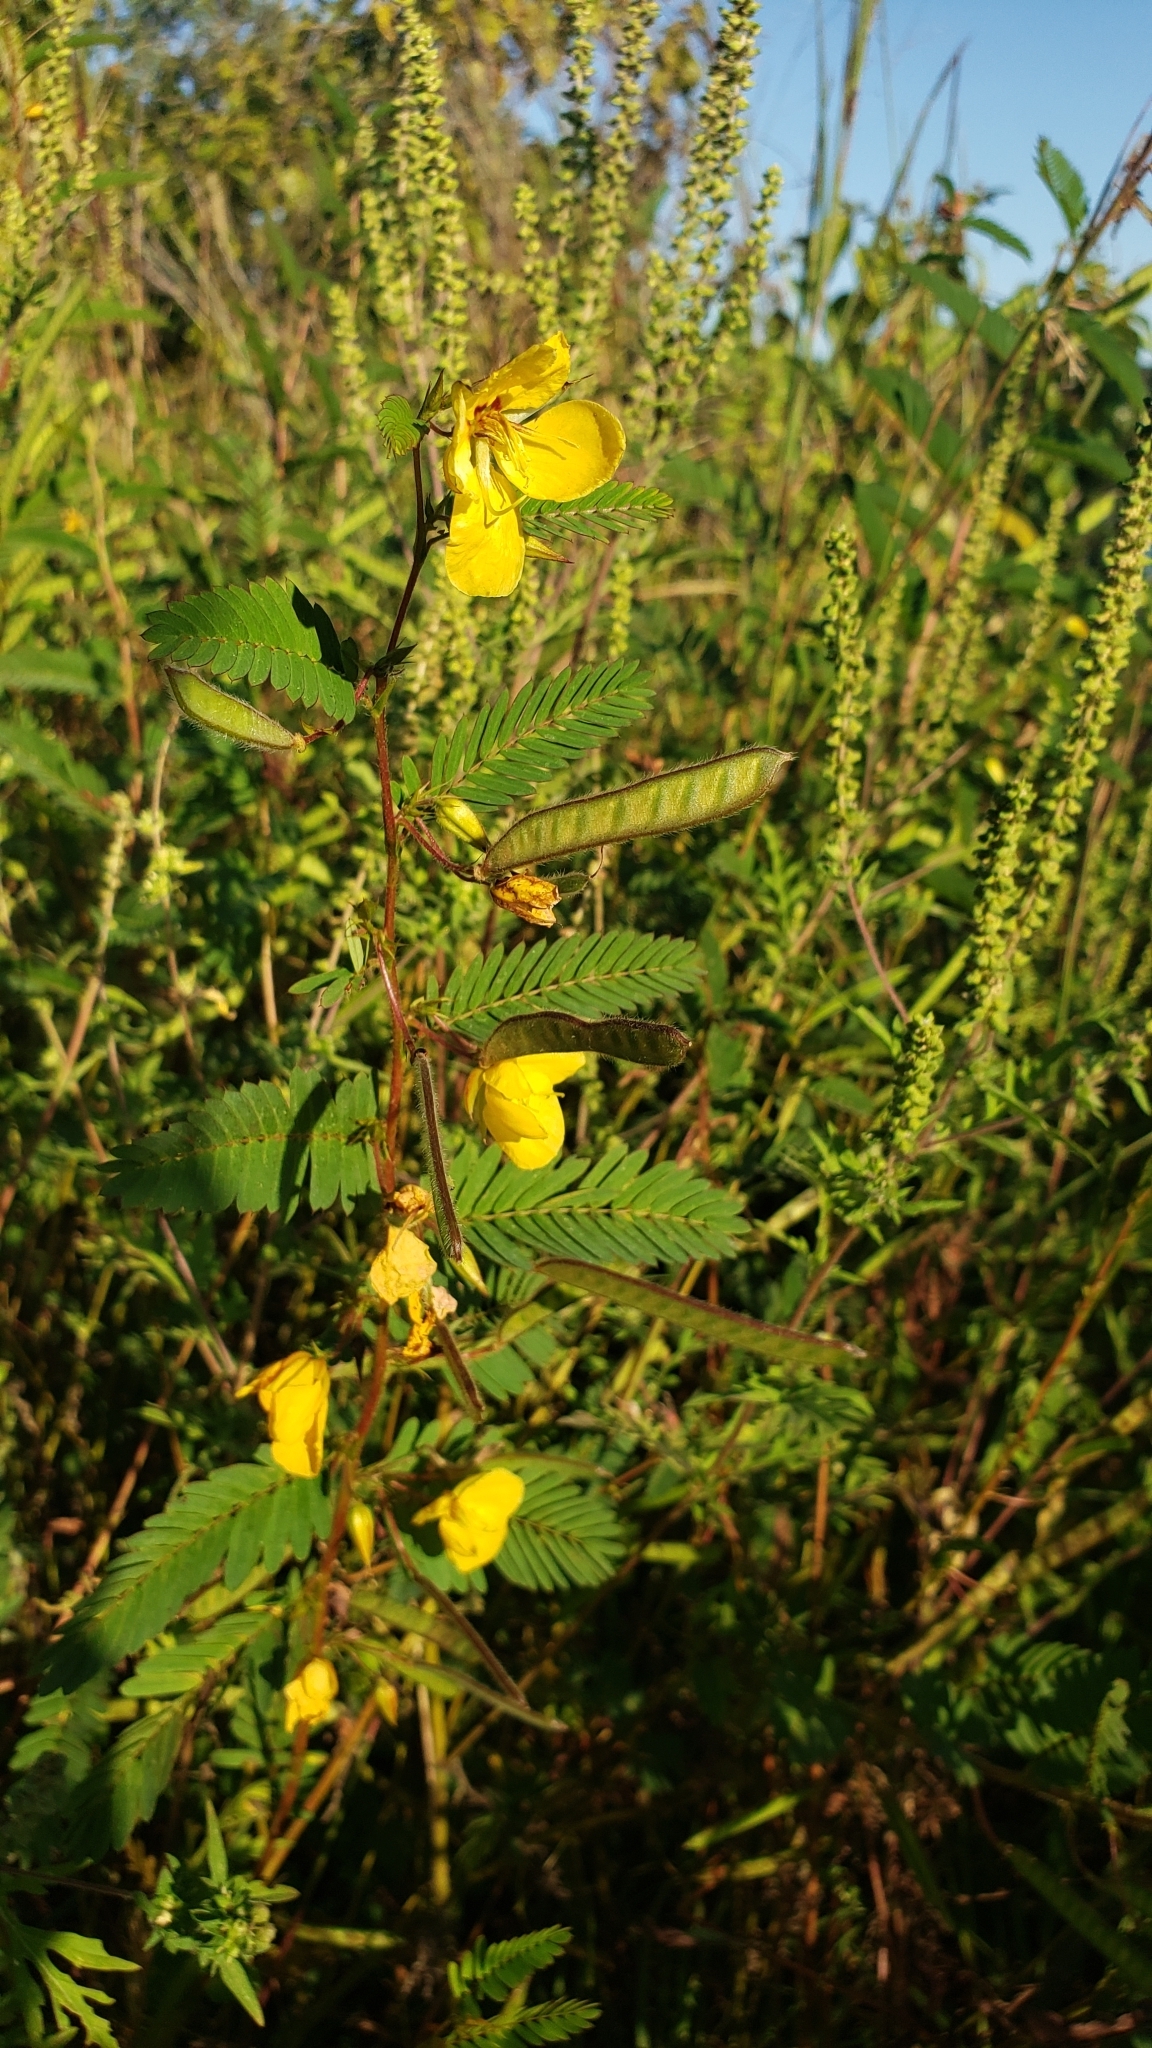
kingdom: Plantae
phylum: Tracheophyta
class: Magnoliopsida
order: Fabales
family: Fabaceae
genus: Chamaecrista
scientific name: Chamaecrista fasciculata
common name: Golden cassia
